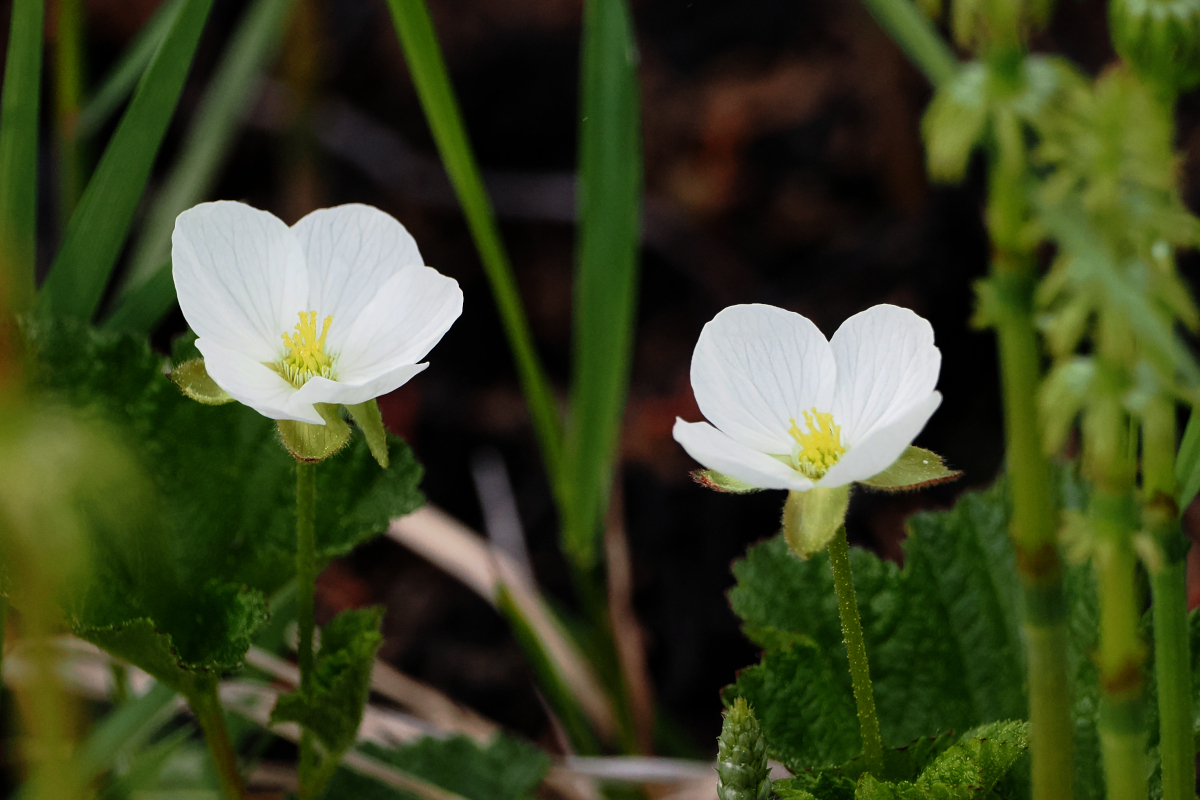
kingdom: Plantae
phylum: Tracheophyta
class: Magnoliopsida
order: Rosales
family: Rosaceae
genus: Rubus
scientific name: Rubus chamaemorus
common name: Cloudberry
